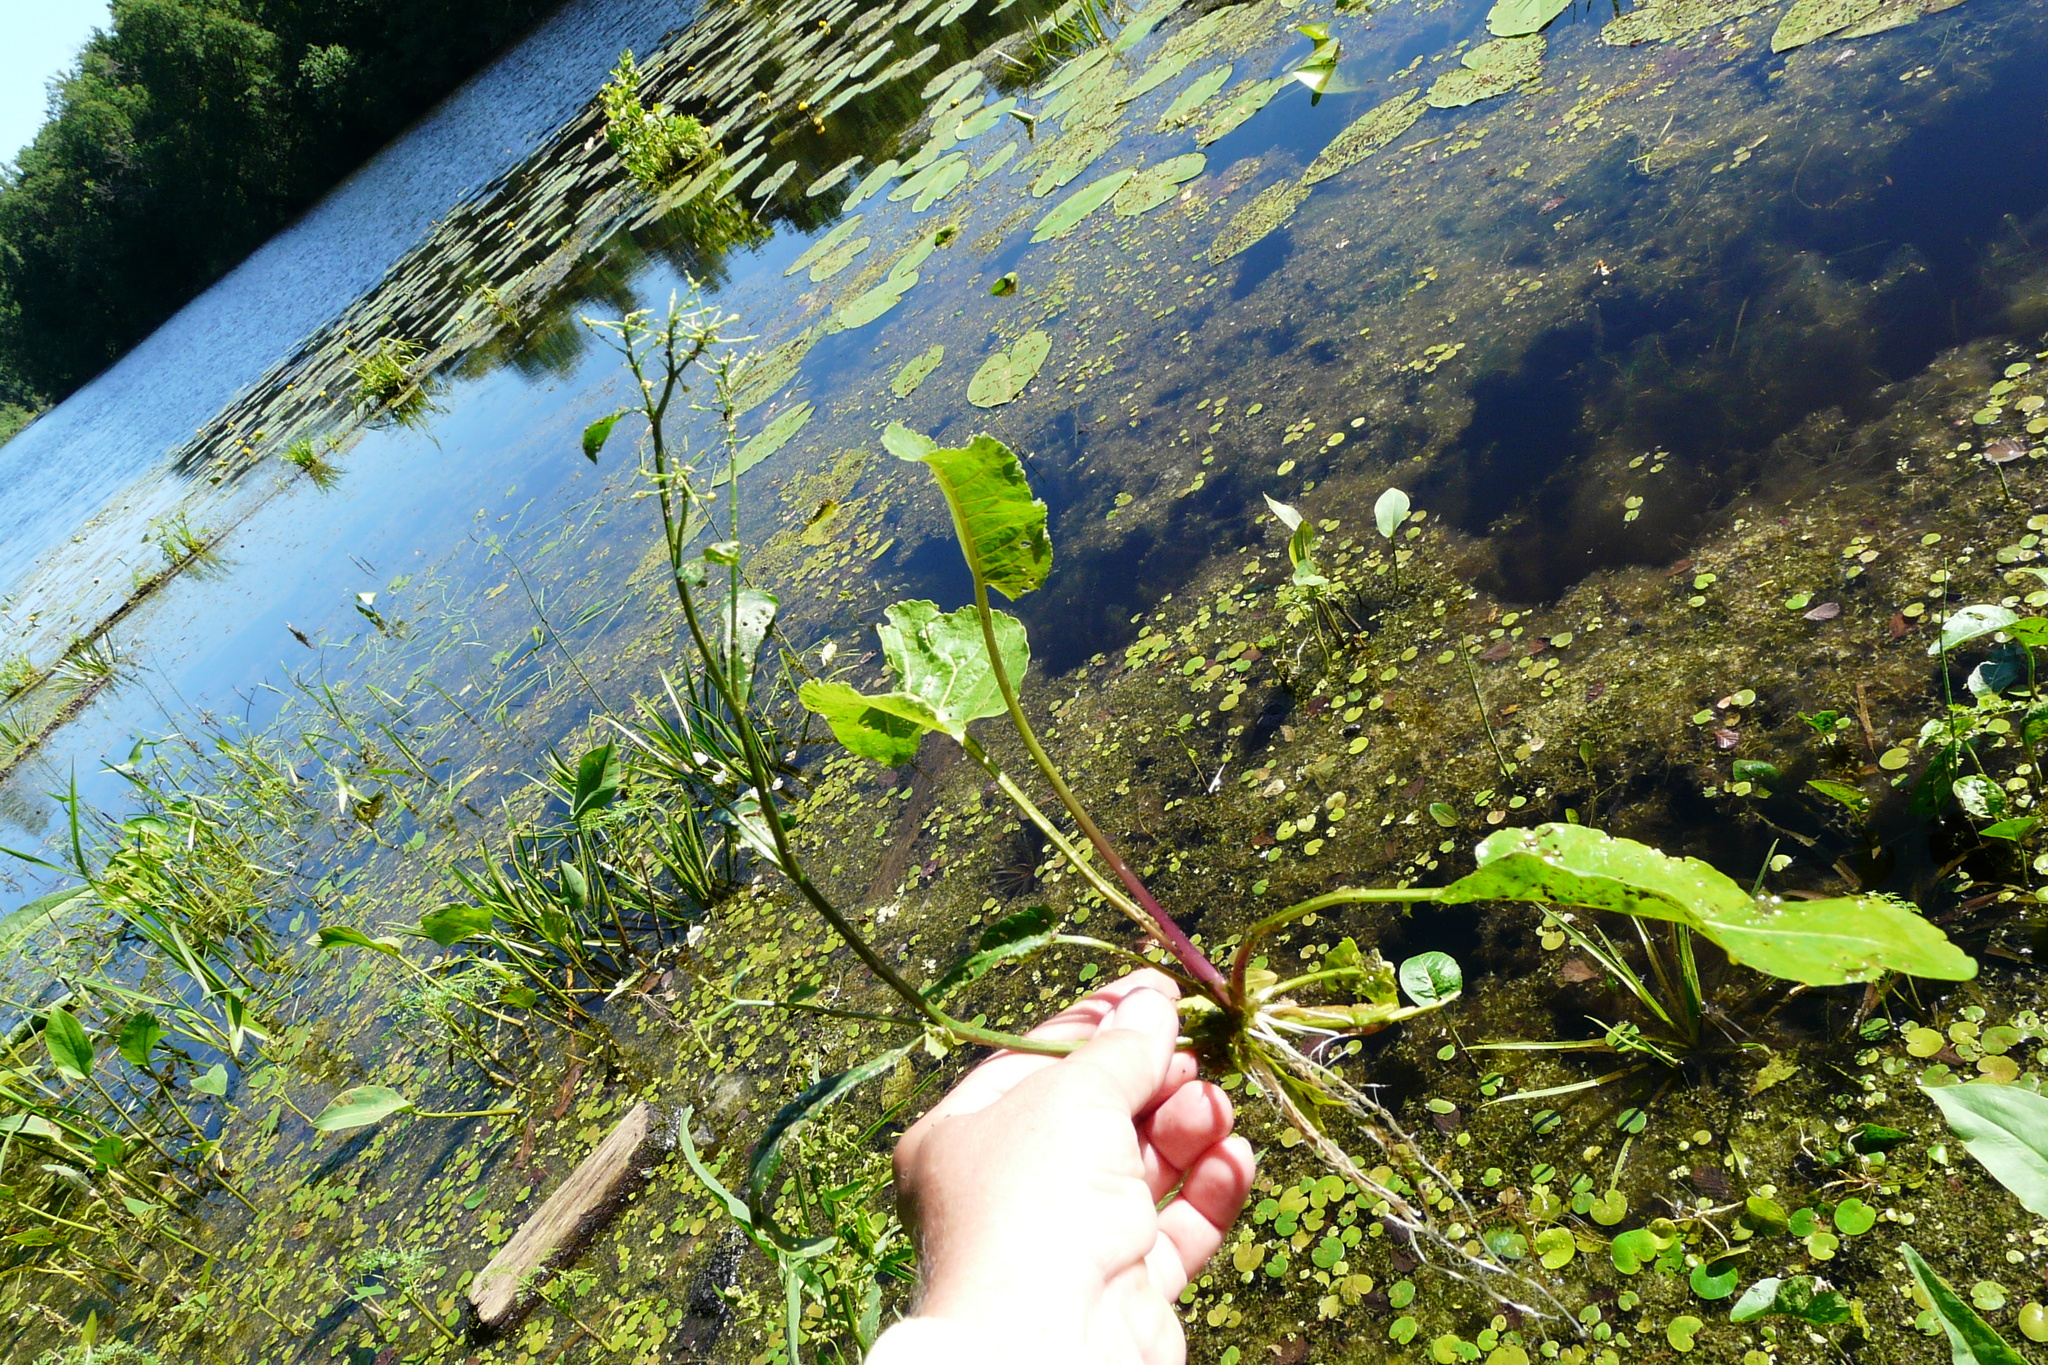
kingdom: Plantae
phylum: Tracheophyta
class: Magnoliopsida
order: Brassicales
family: Brassicaceae
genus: Rorippa
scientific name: Rorippa amphibia
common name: Great yellow-cress
